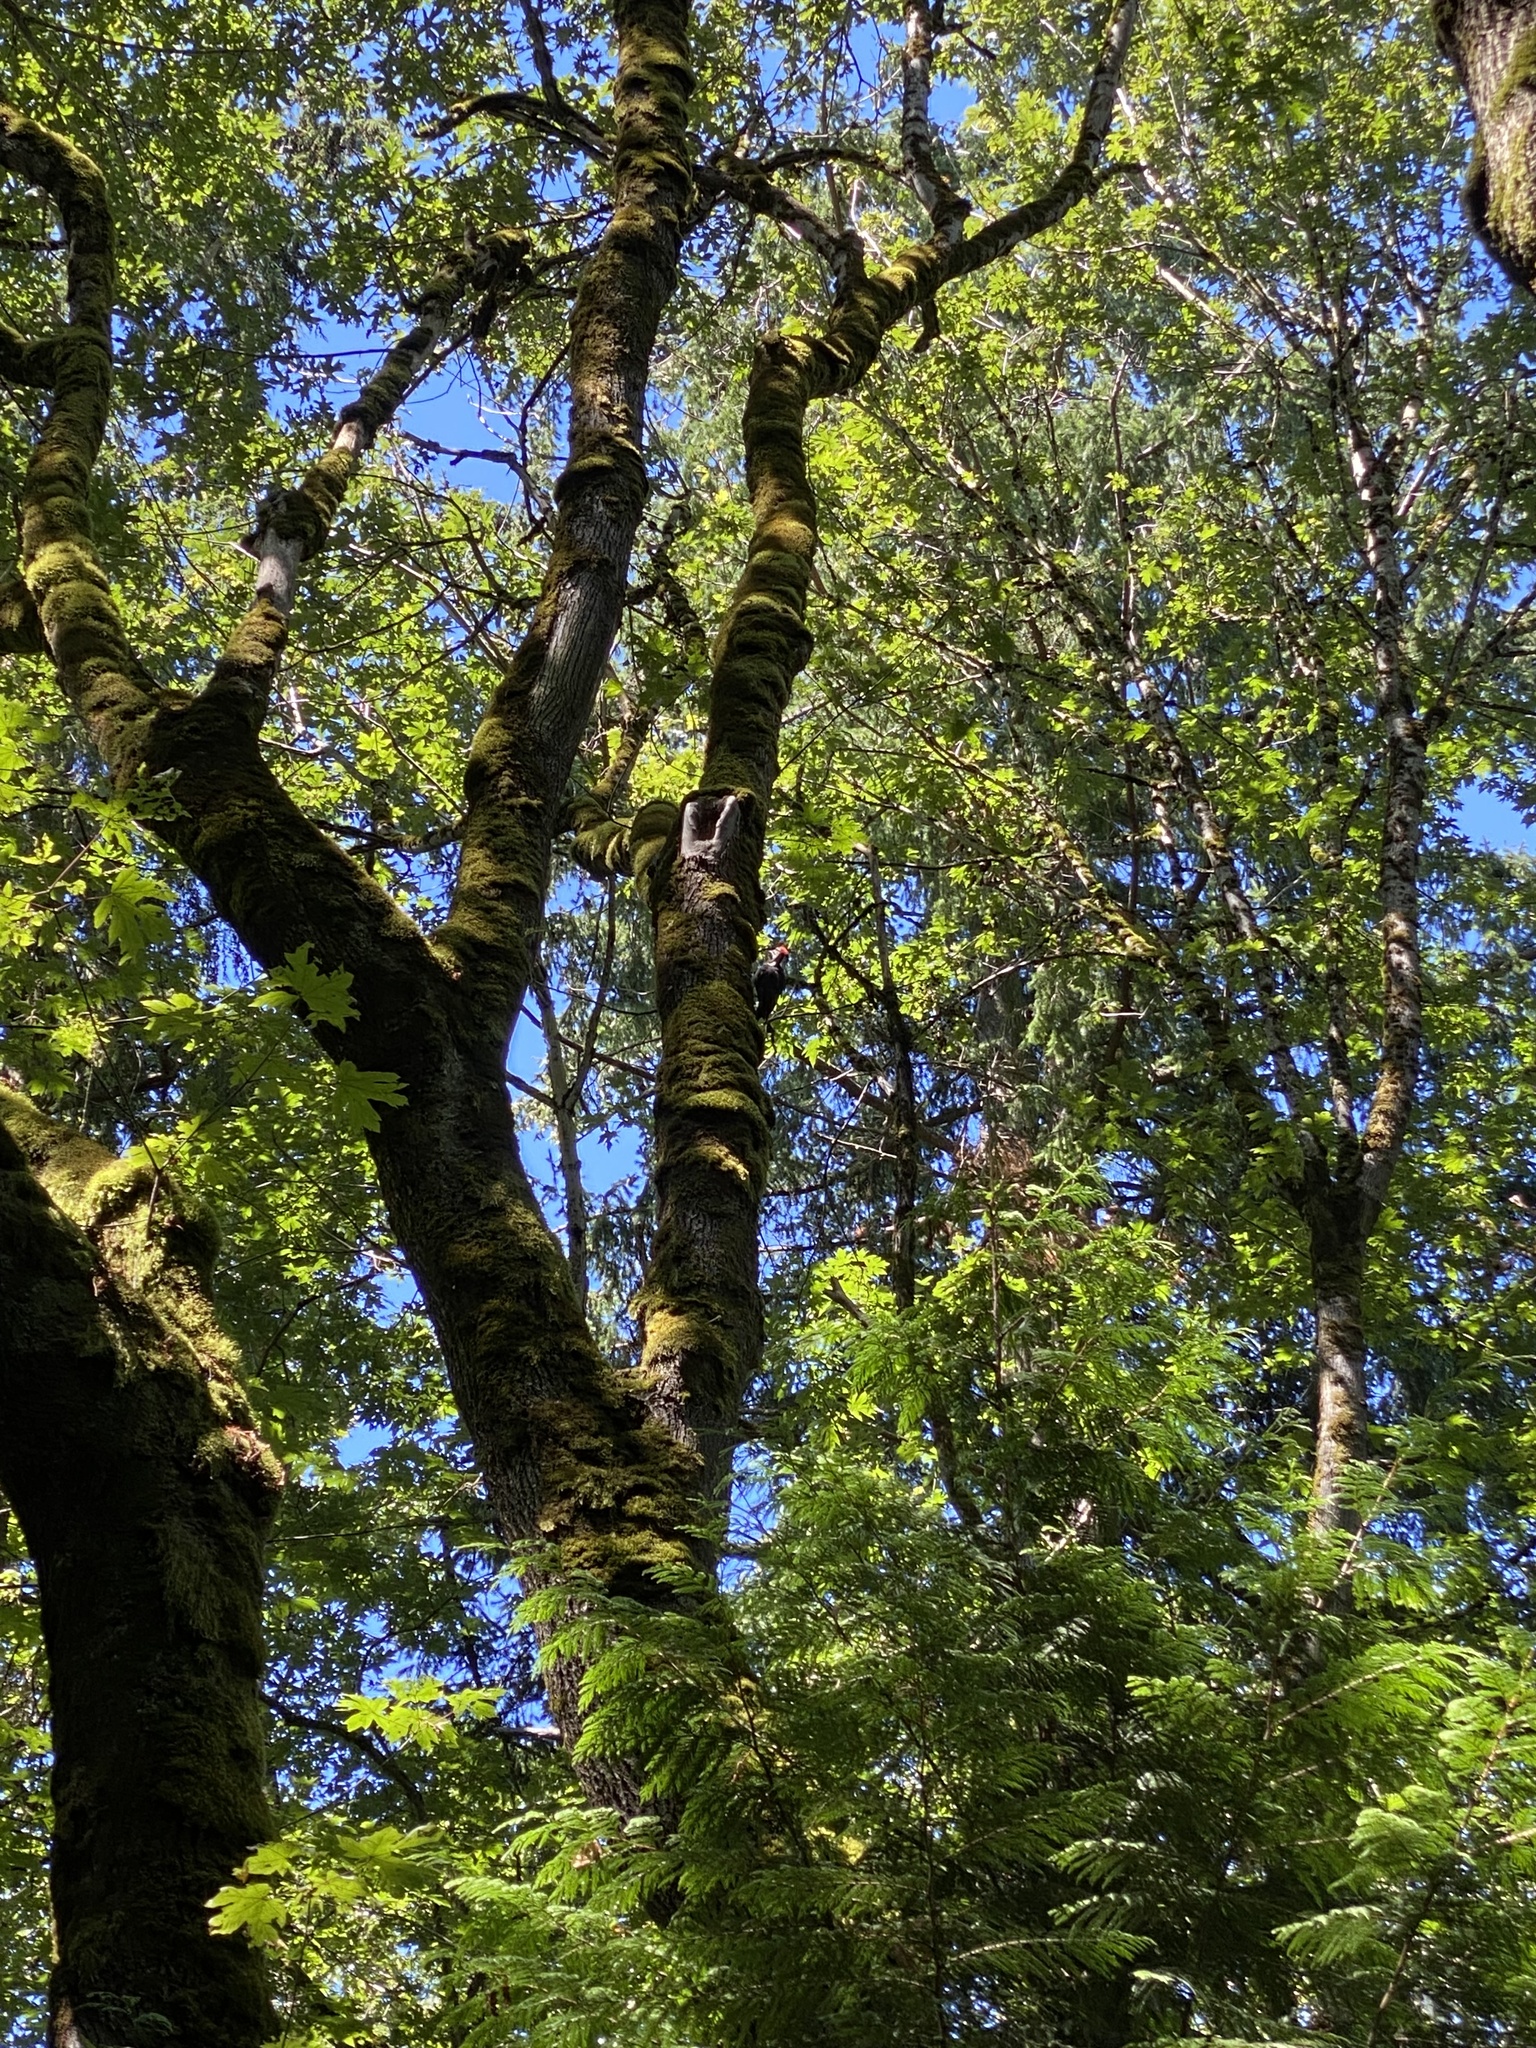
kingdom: Animalia
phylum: Chordata
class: Aves
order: Piciformes
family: Picidae
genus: Dryocopus
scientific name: Dryocopus pileatus
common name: Pileated woodpecker
